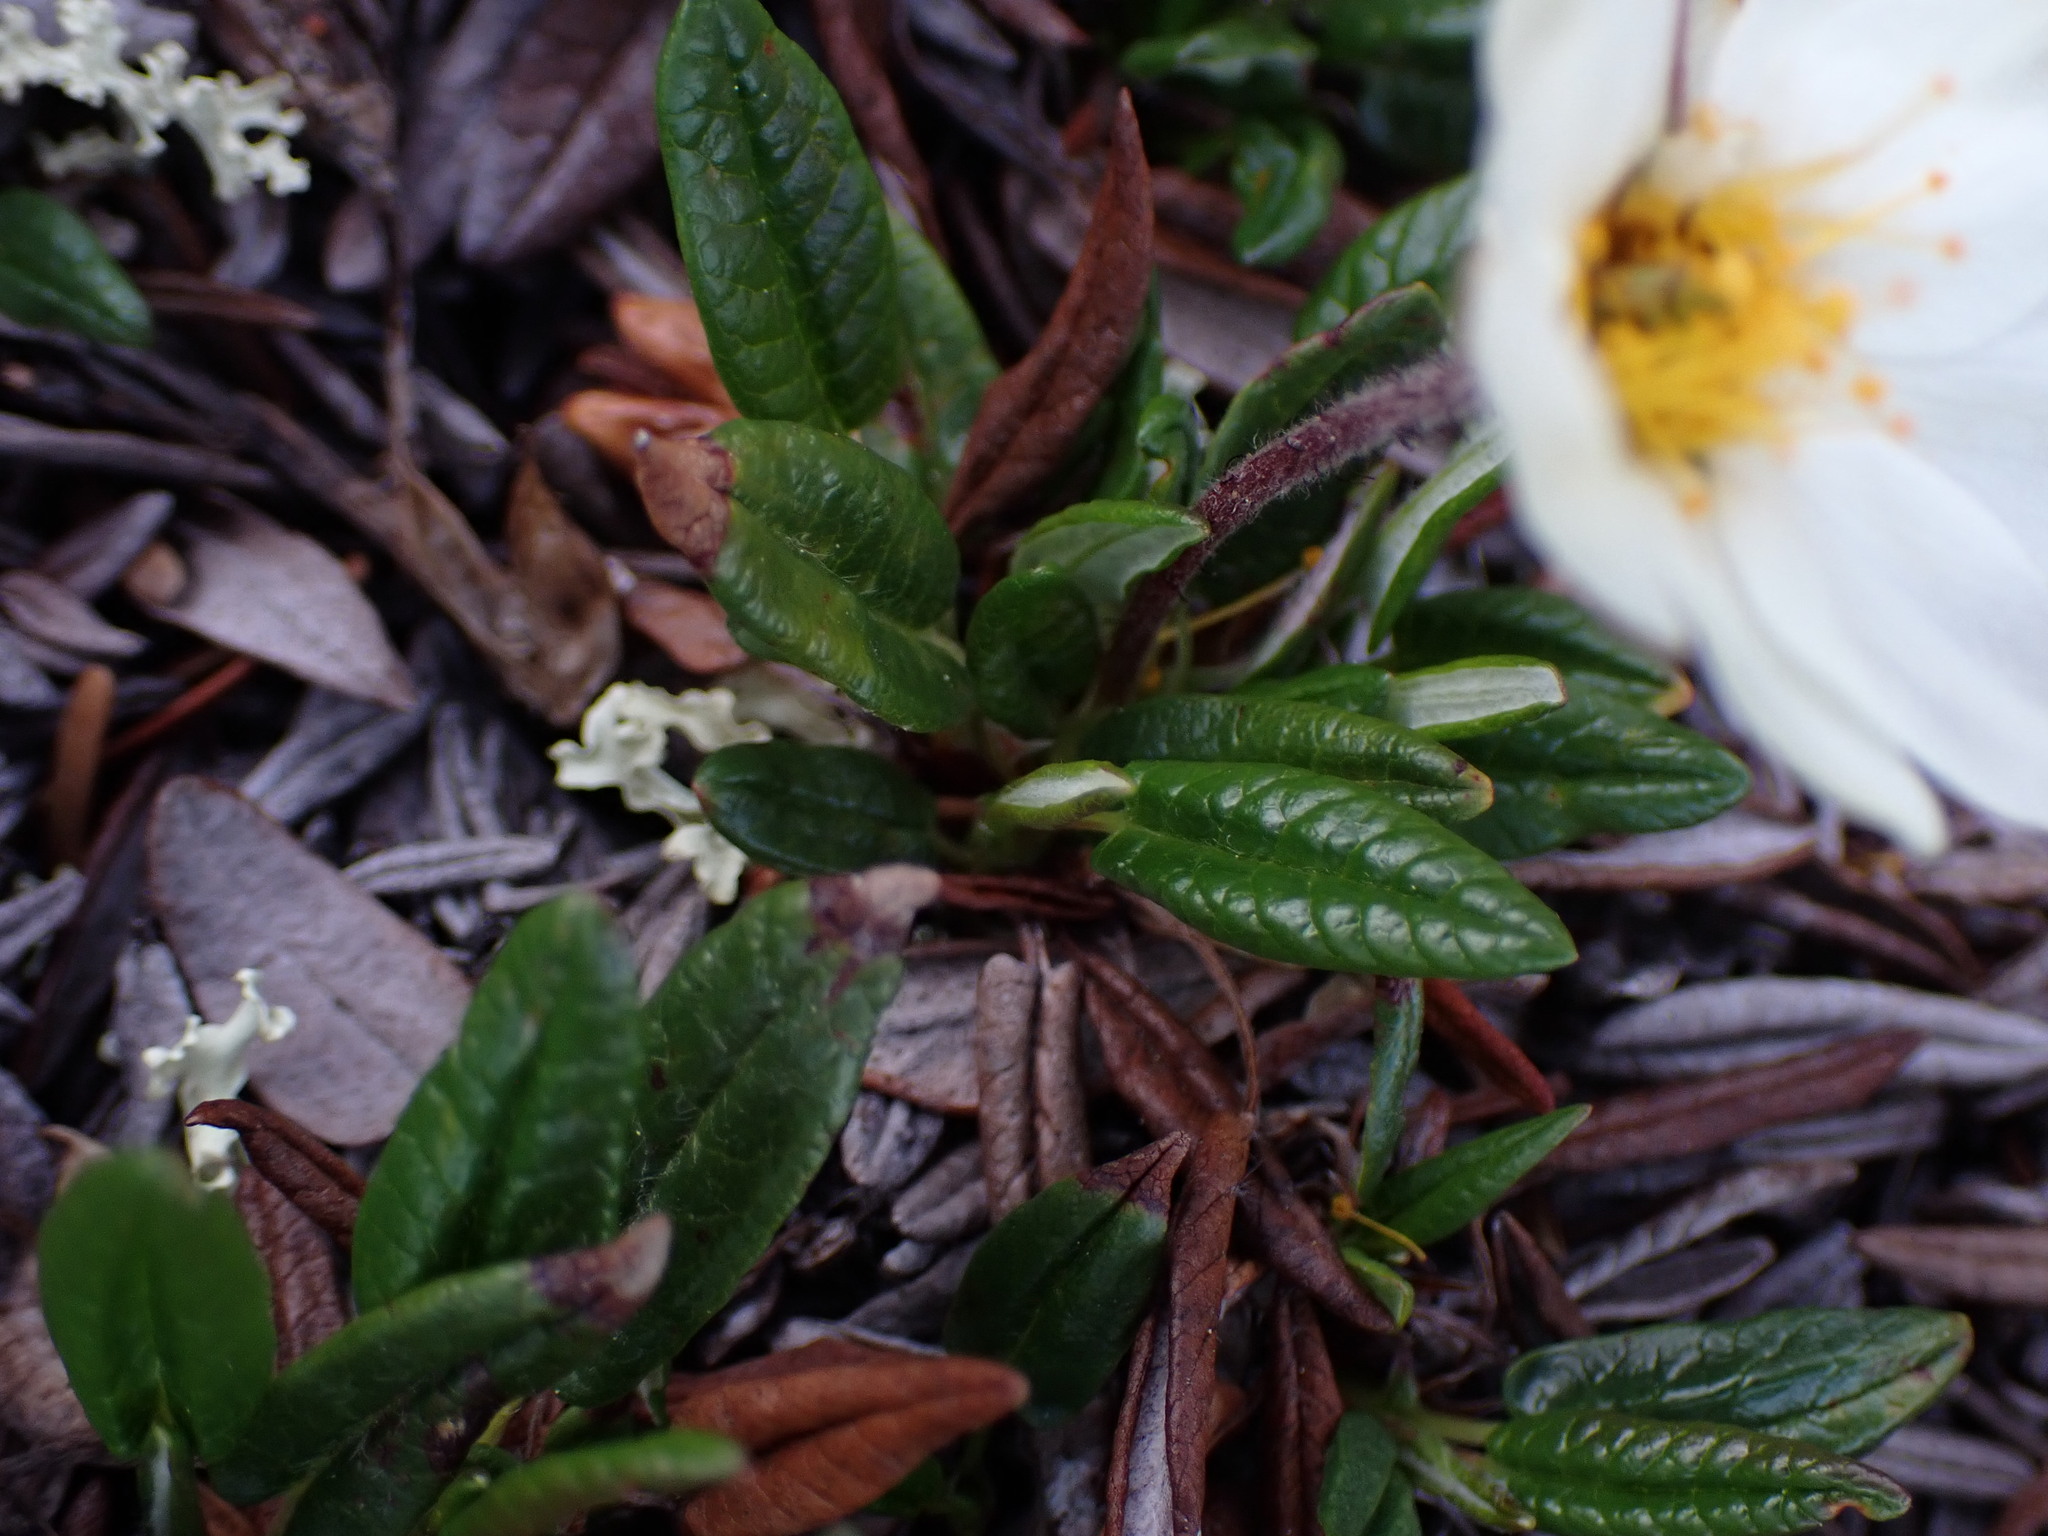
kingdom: Plantae
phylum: Tracheophyta
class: Magnoliopsida
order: Rosales
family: Rosaceae
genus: Dryas
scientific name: Dryas integrifolia
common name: Entire-leaved mountain avens
